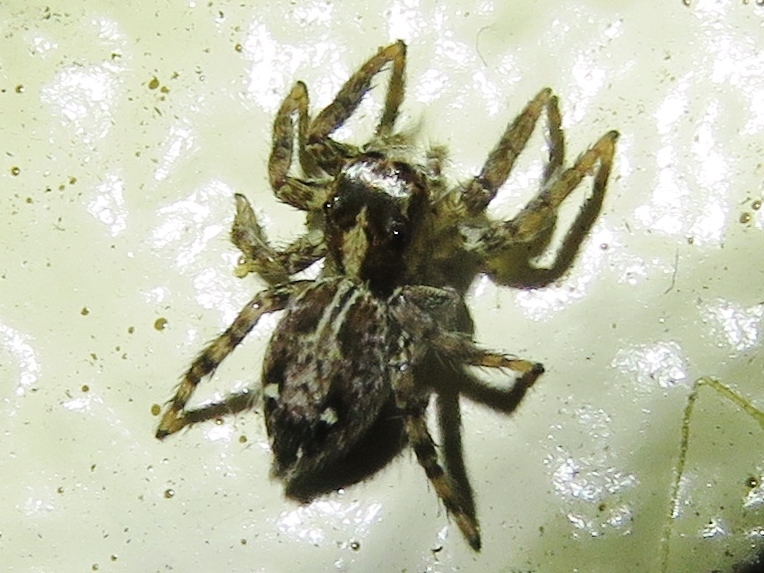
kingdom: Animalia
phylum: Arthropoda
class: Arachnida
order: Araneae
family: Salticidae
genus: Plexippus
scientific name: Plexippus paykulli
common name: Pantropical jumper
